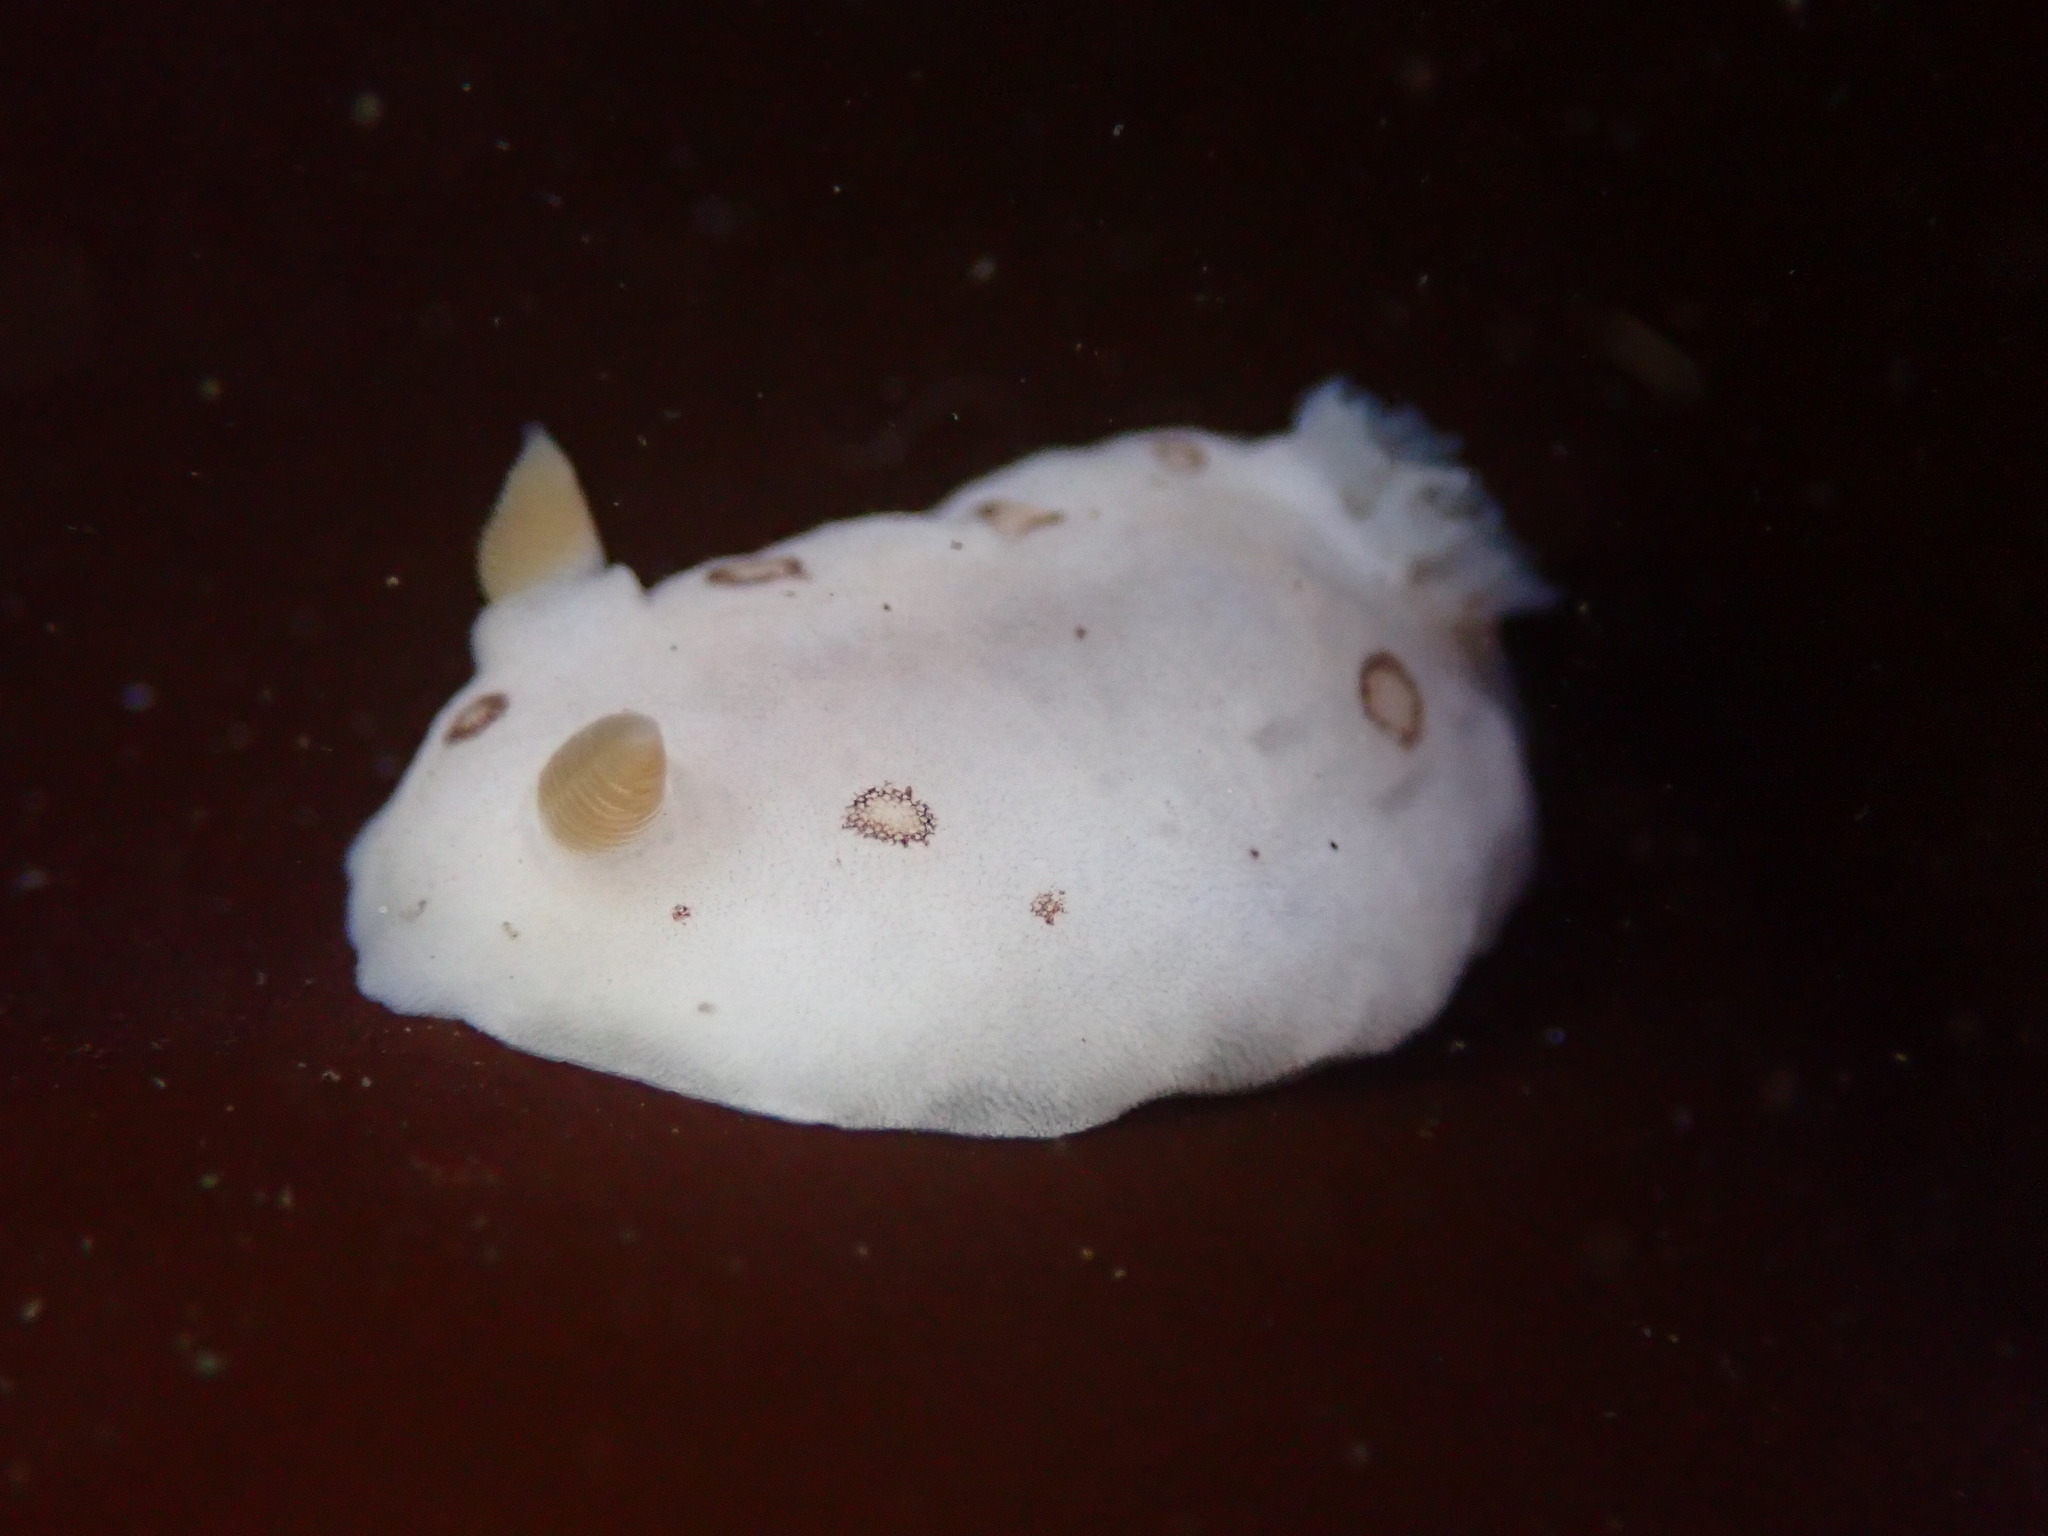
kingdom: Animalia
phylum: Mollusca
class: Gastropoda
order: Nudibranchia
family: Discodorididae
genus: Diaulula
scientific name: Diaulula sandiegensis
